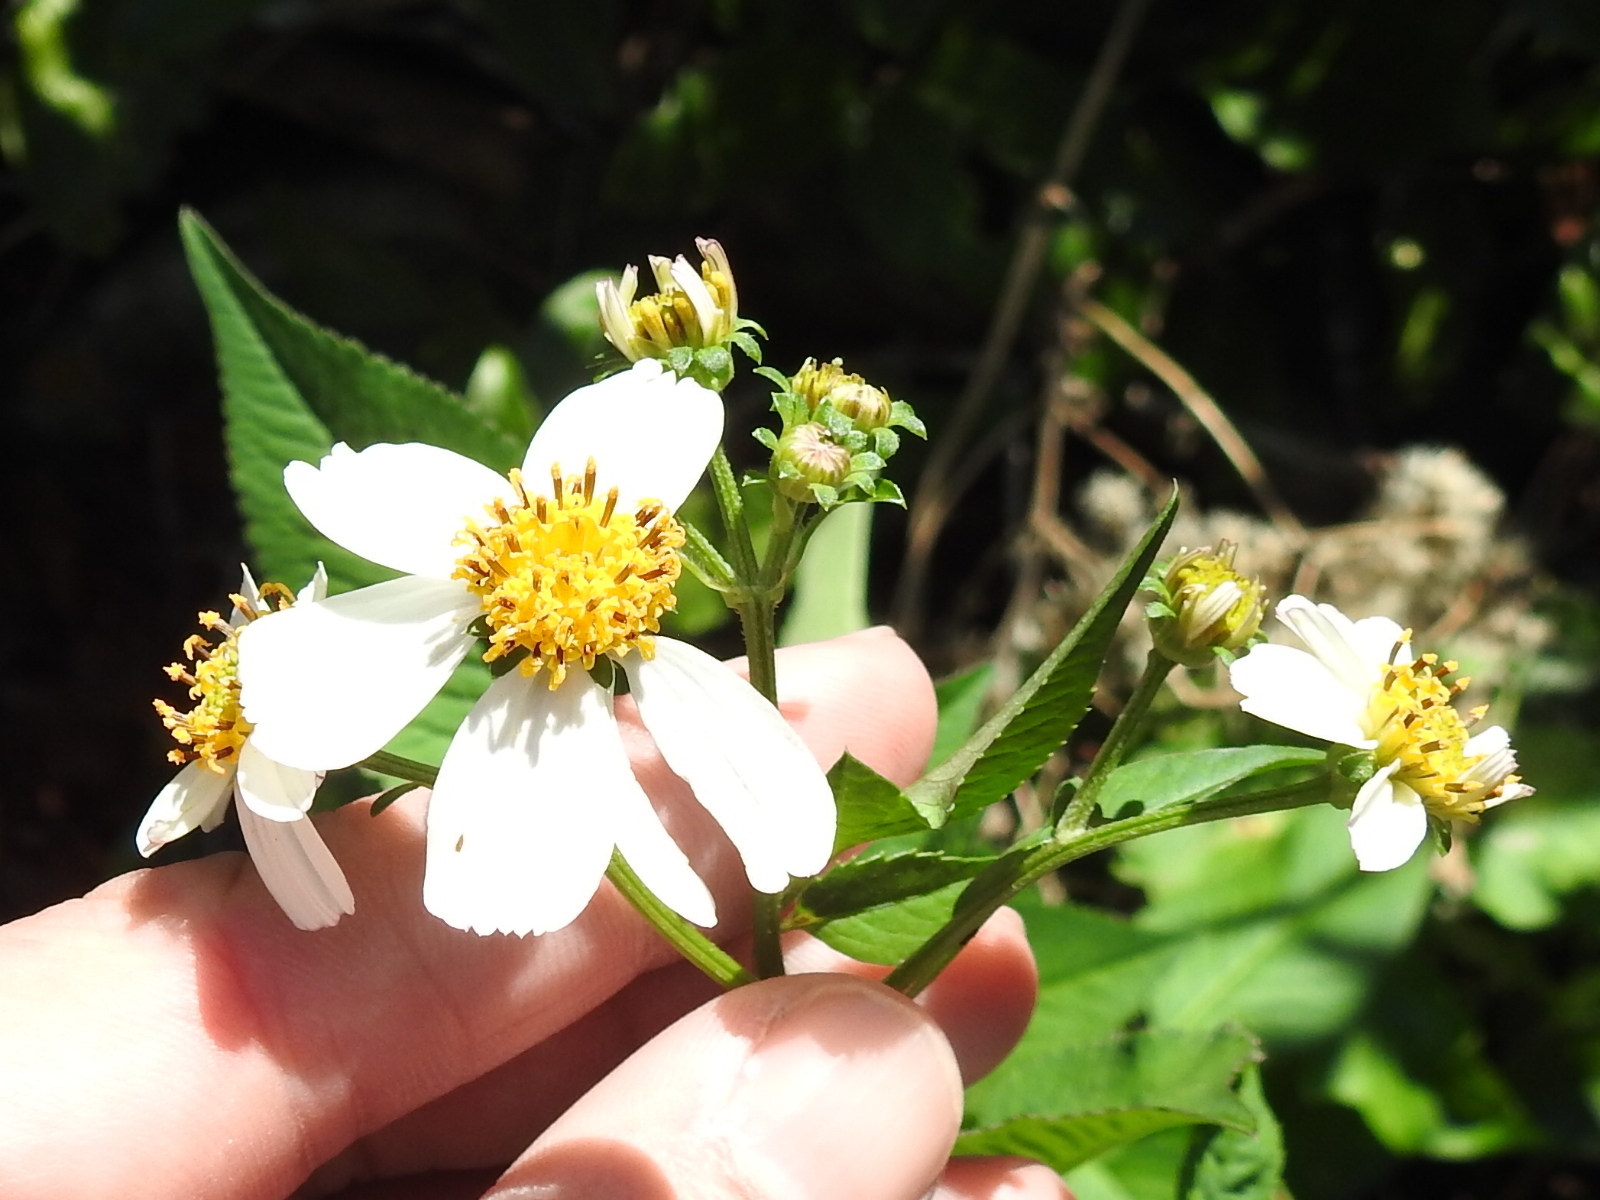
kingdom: Plantae
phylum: Tracheophyta
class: Magnoliopsida
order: Asterales
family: Asteraceae
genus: Bidens
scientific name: Bidens alba
